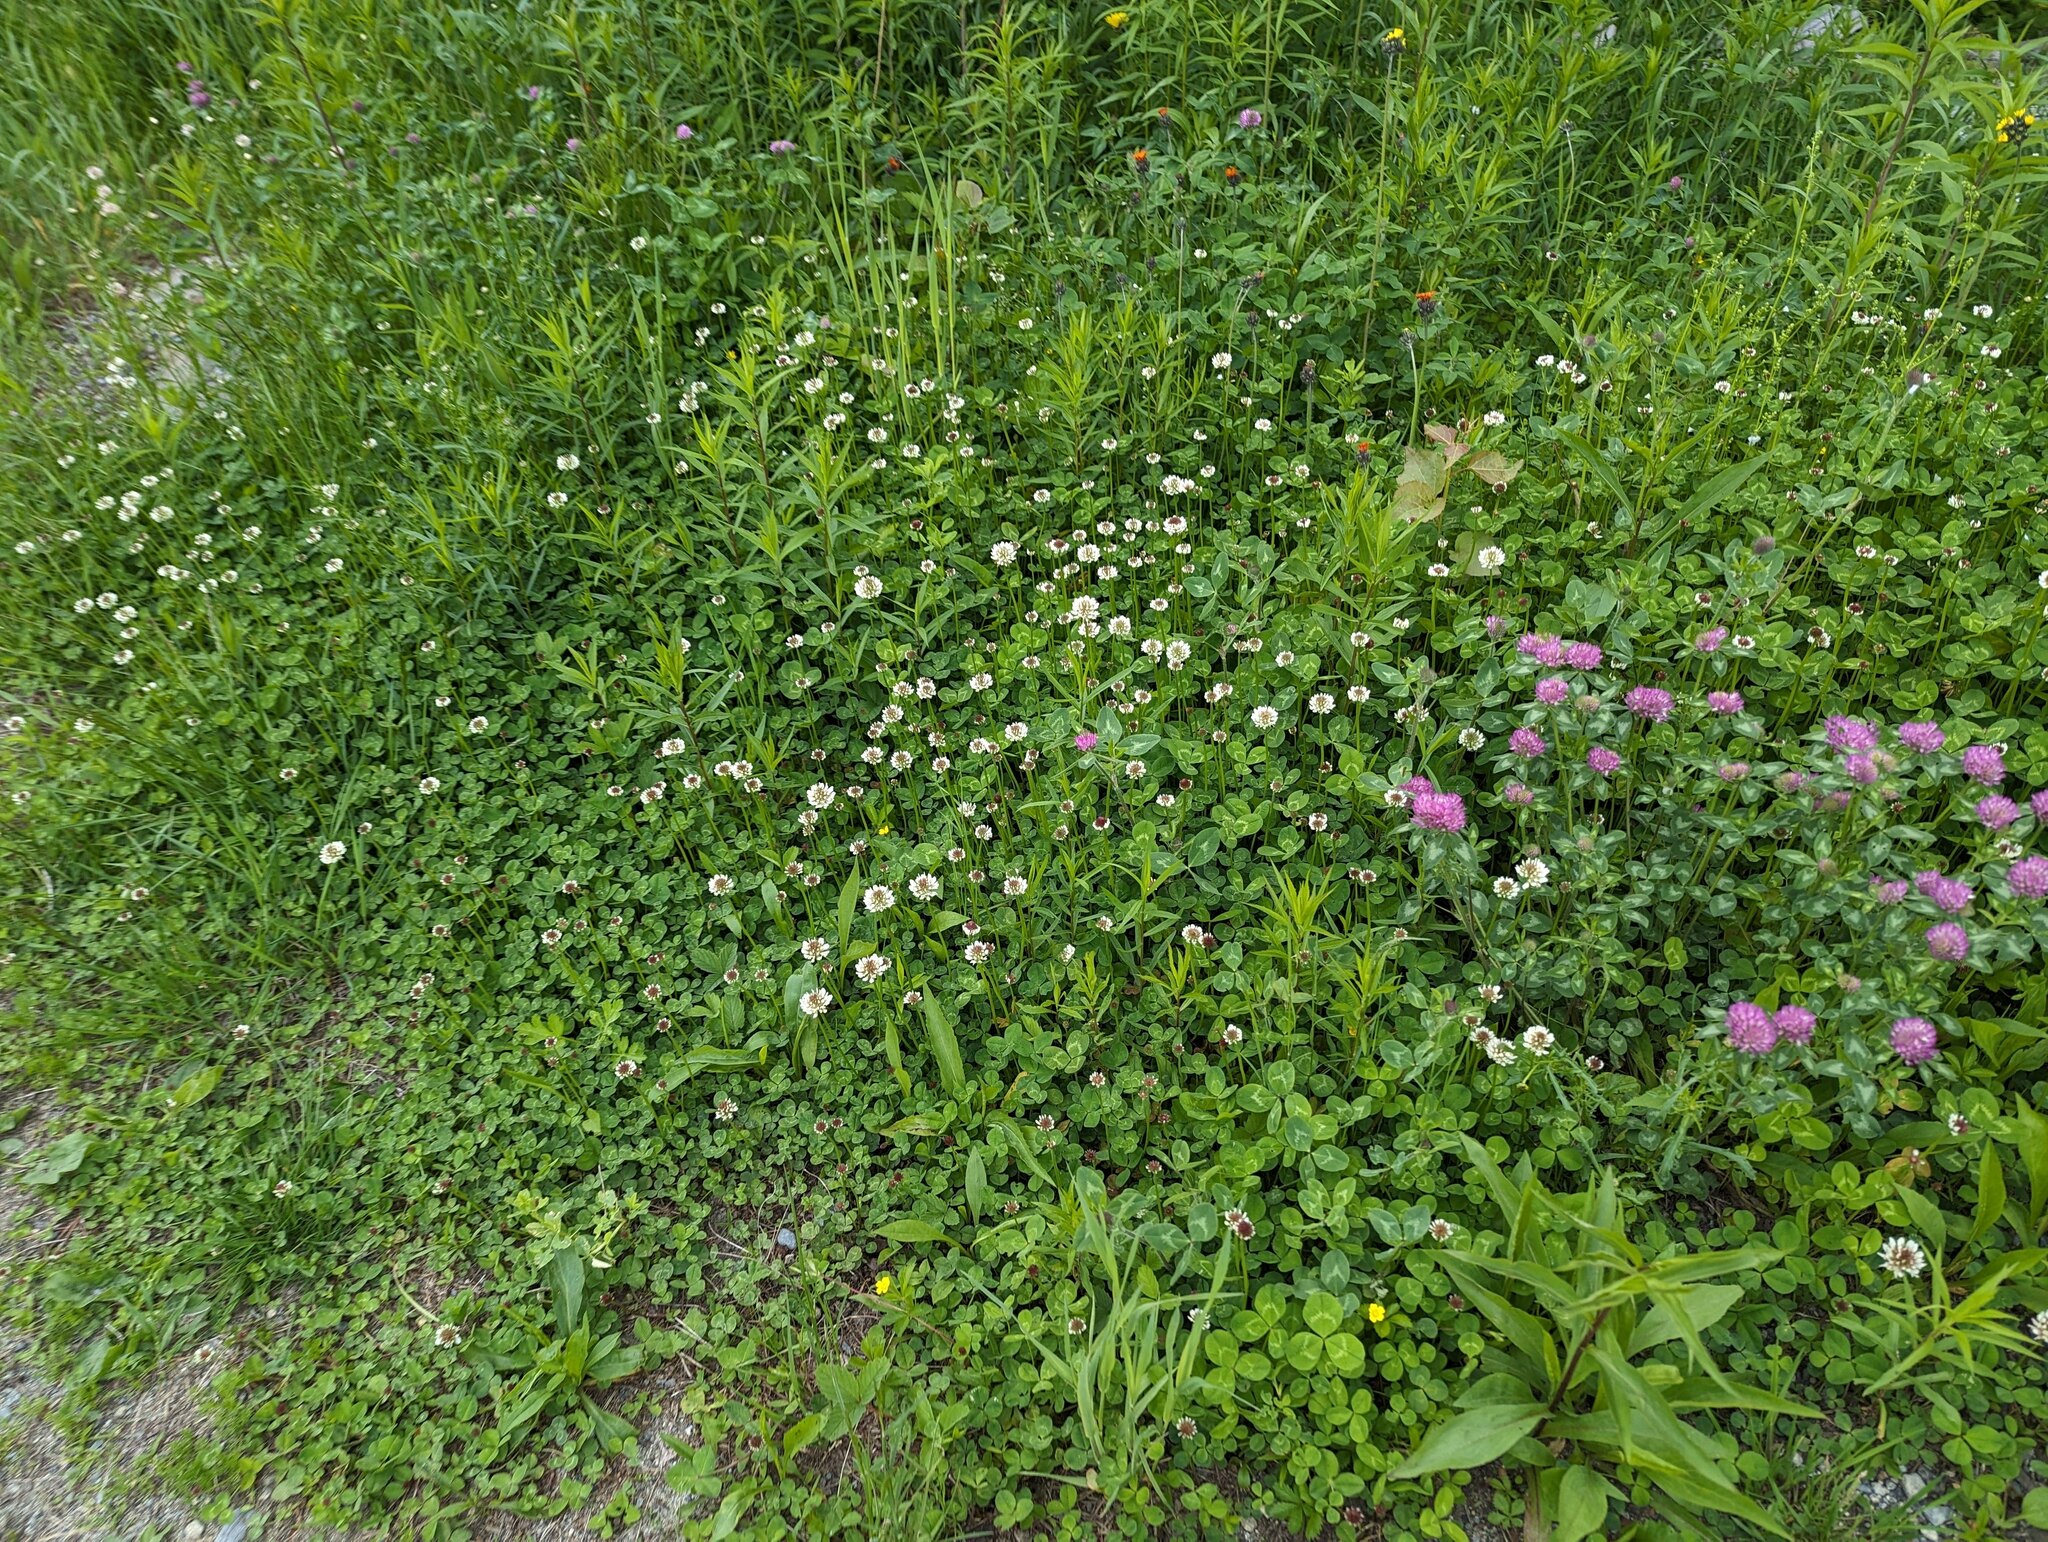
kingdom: Plantae
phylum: Tracheophyta
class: Magnoliopsida
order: Fabales
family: Fabaceae
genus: Trifolium
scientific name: Trifolium repens
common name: White clover
